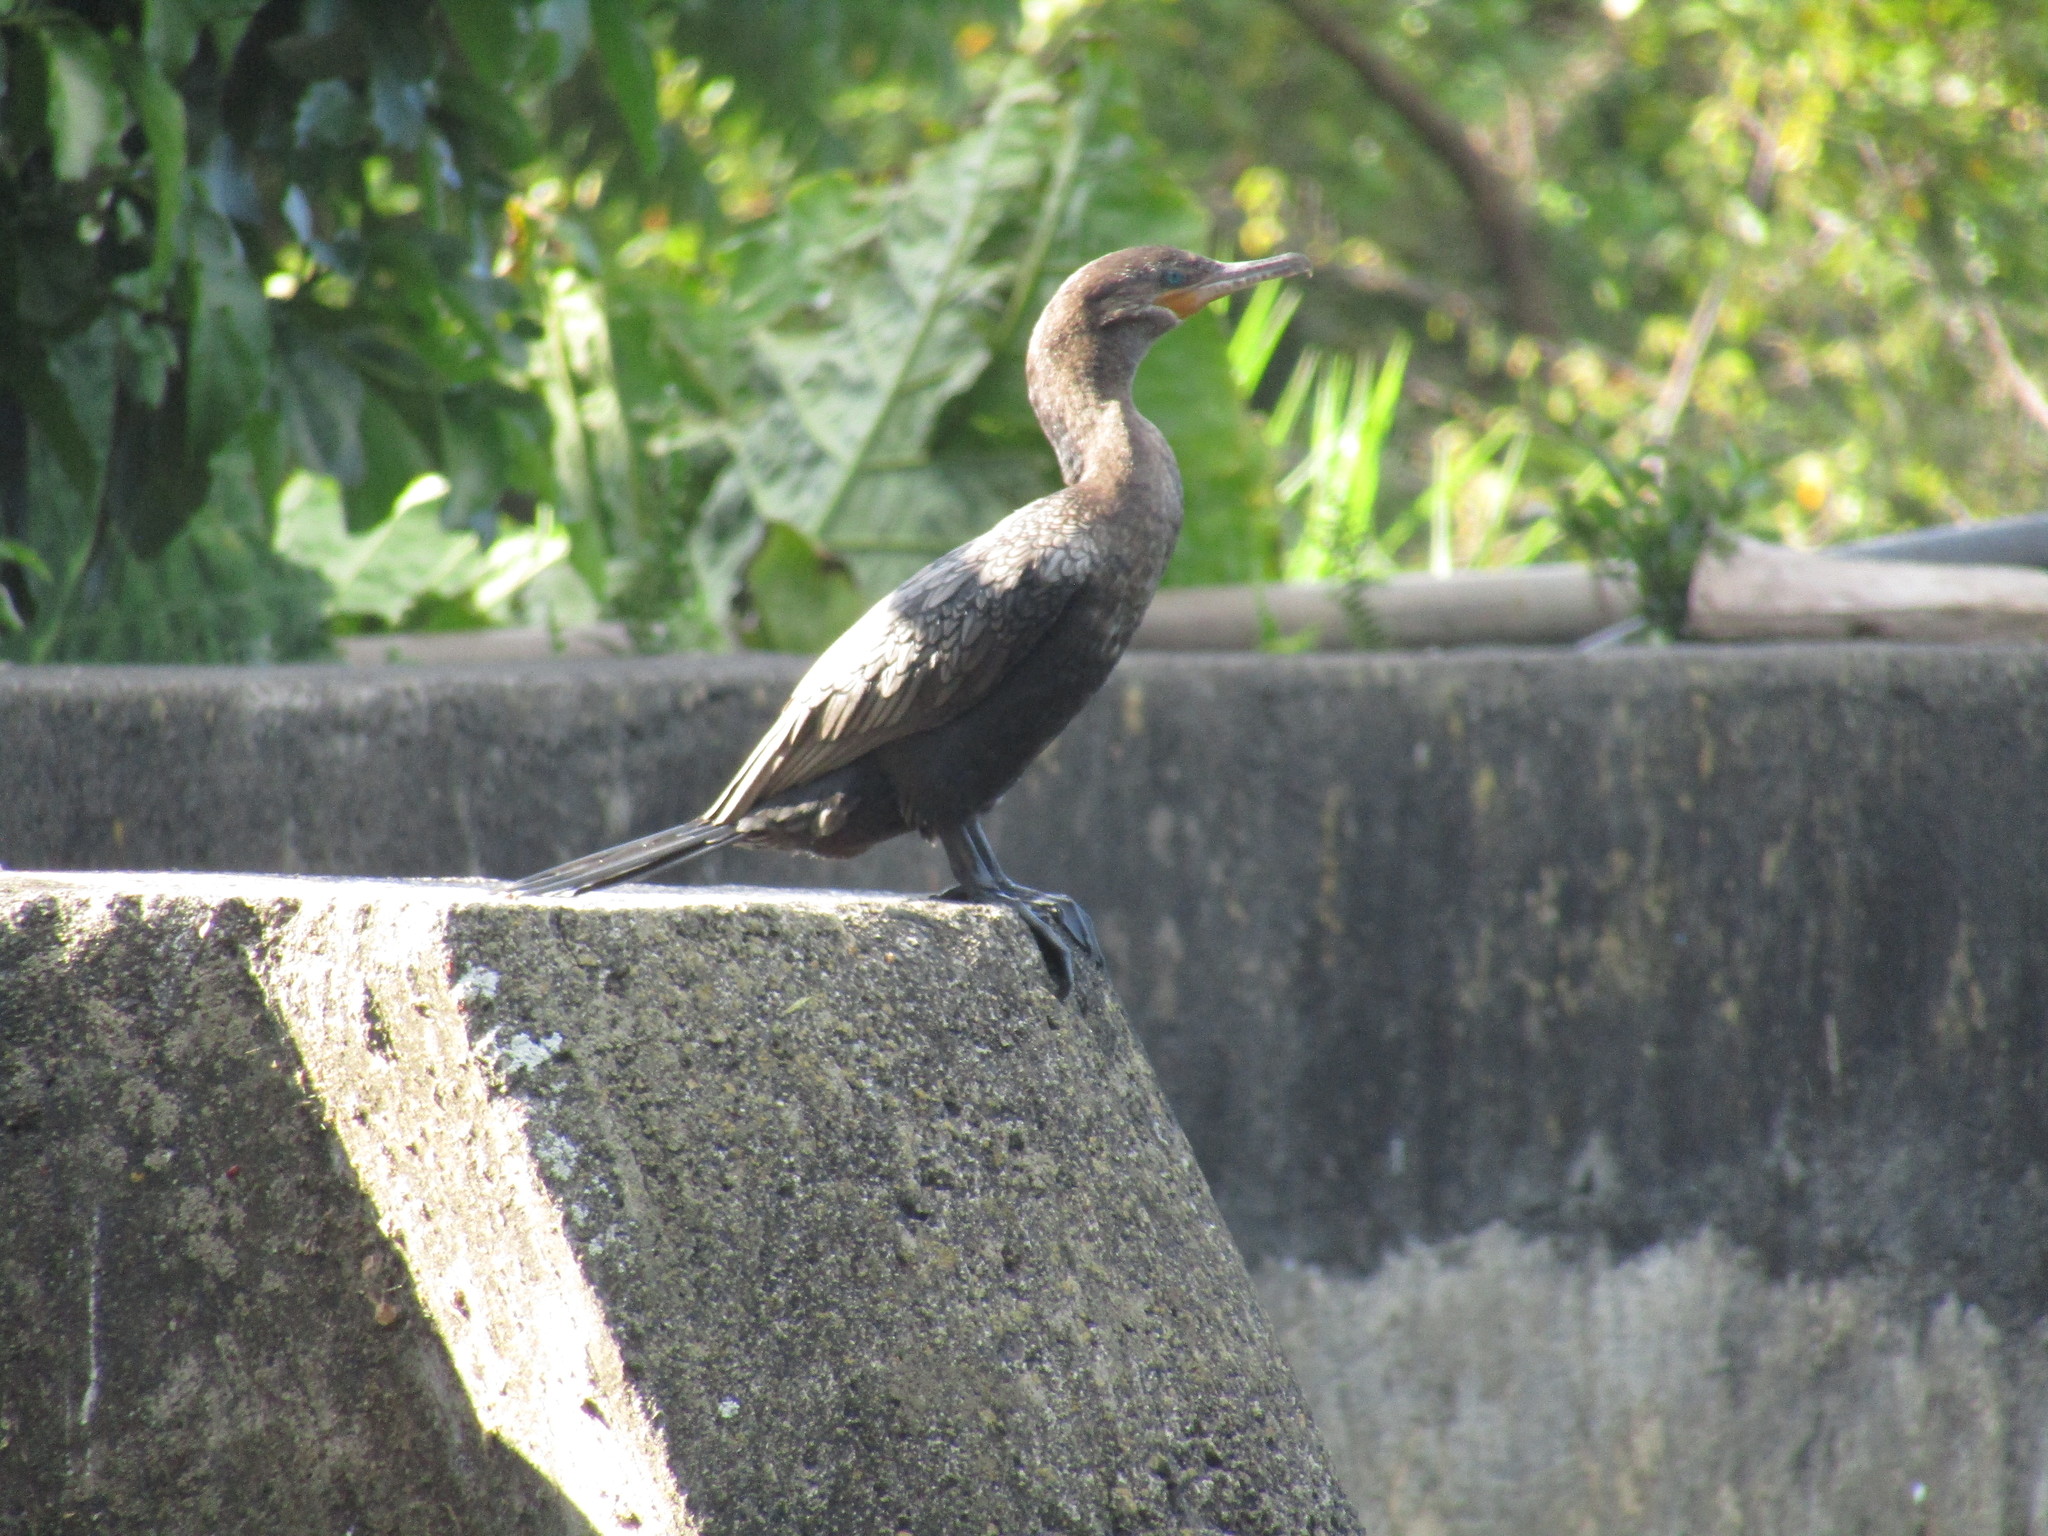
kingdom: Animalia
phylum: Chordata
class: Aves
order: Suliformes
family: Phalacrocoracidae
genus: Phalacrocorax
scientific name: Phalacrocorax brasilianus
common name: Neotropic cormorant
